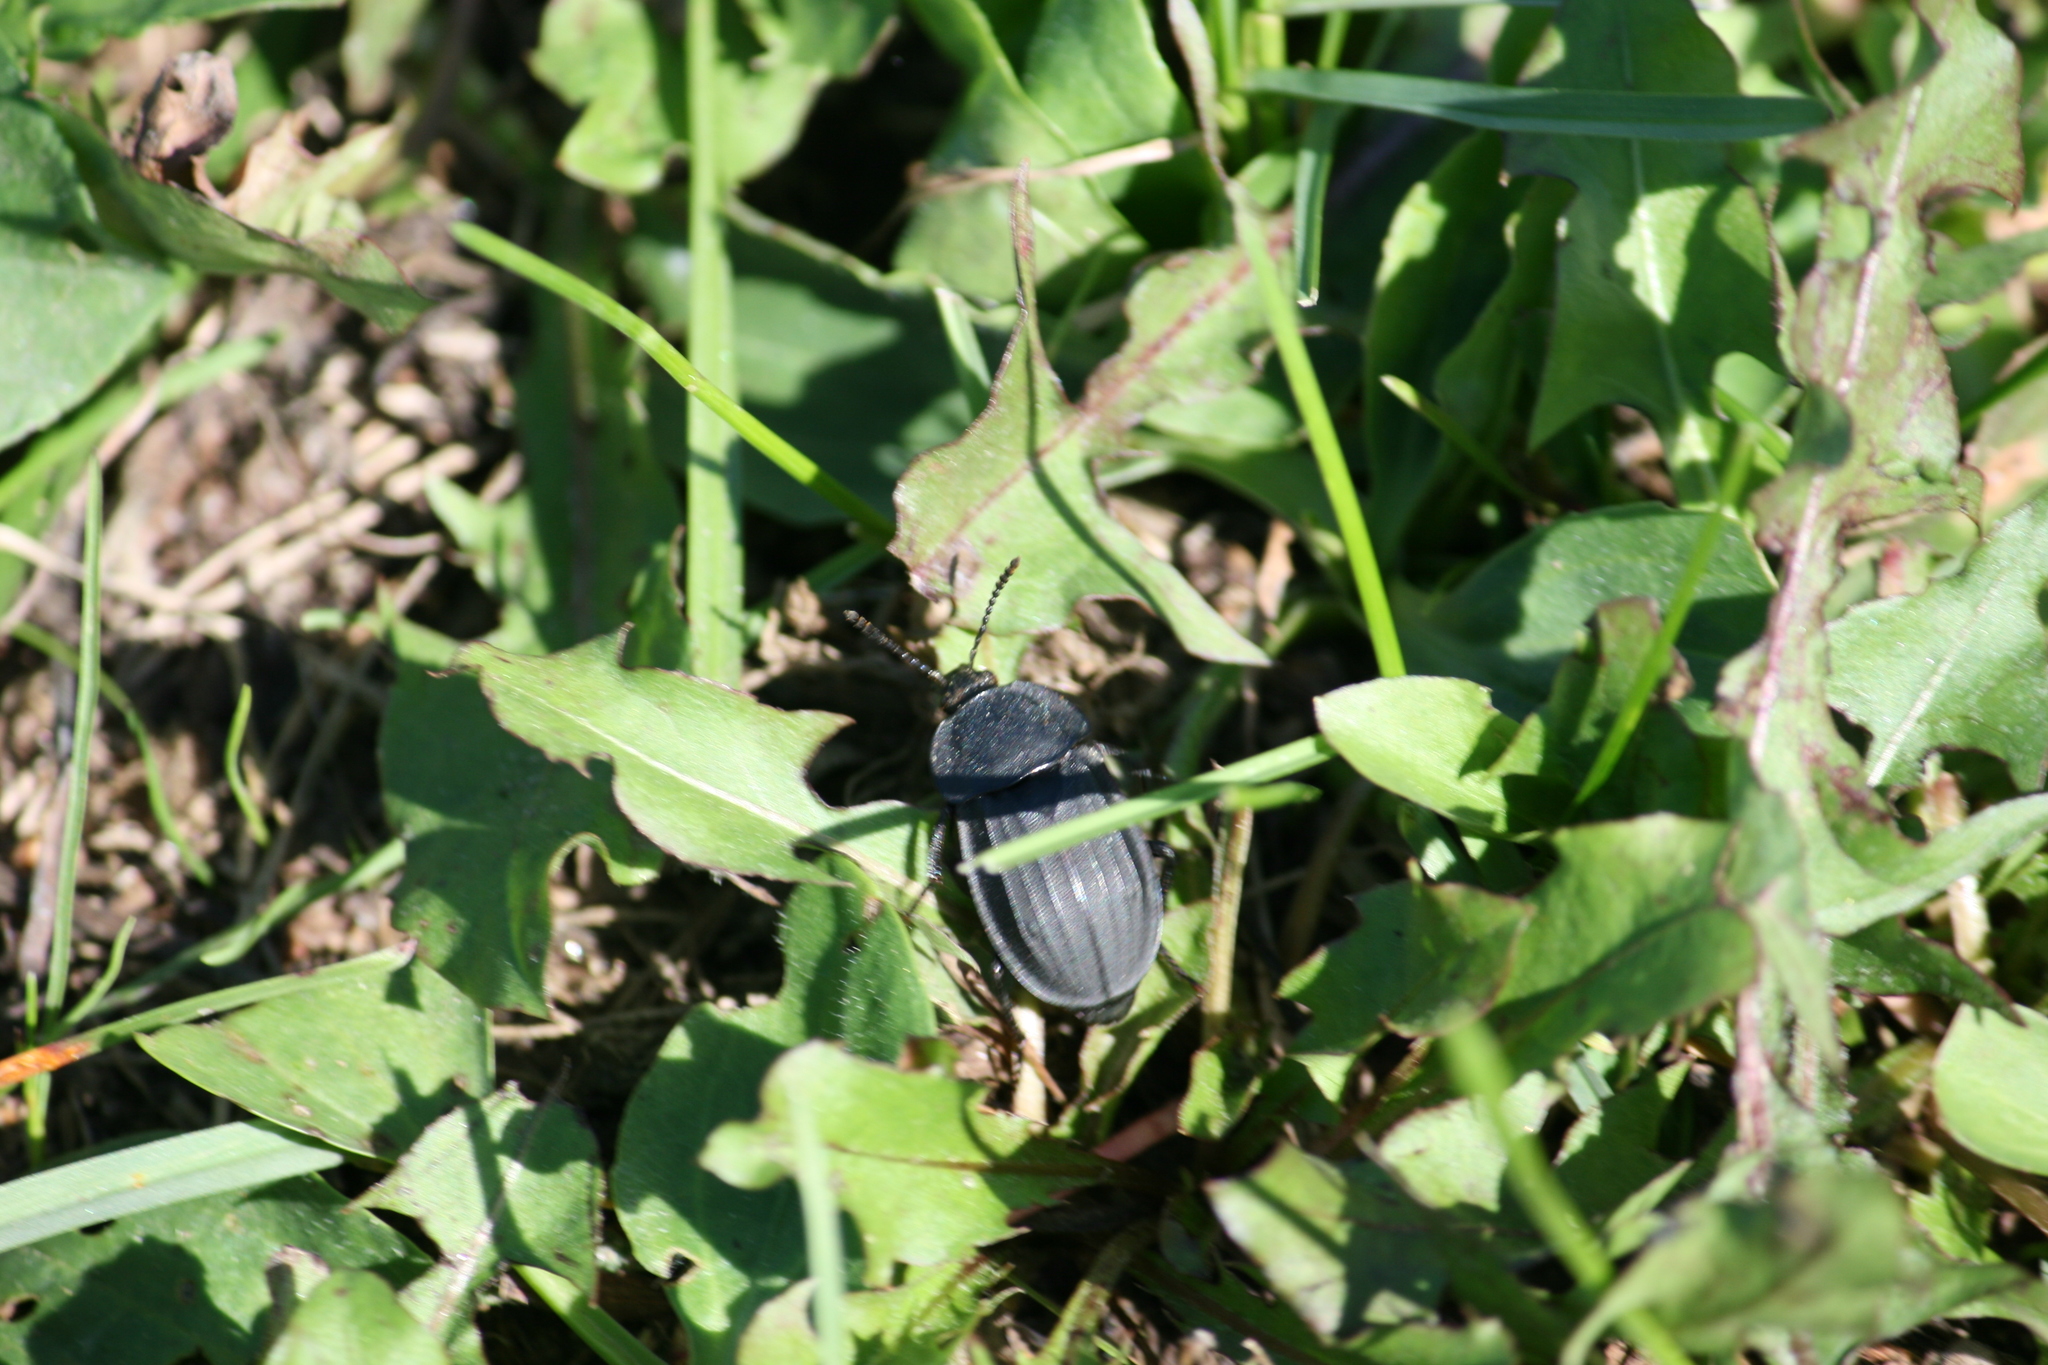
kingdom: Animalia
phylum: Arthropoda
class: Insecta
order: Coleoptera
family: Staphylinidae
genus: Silpha
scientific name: Silpha tristis
